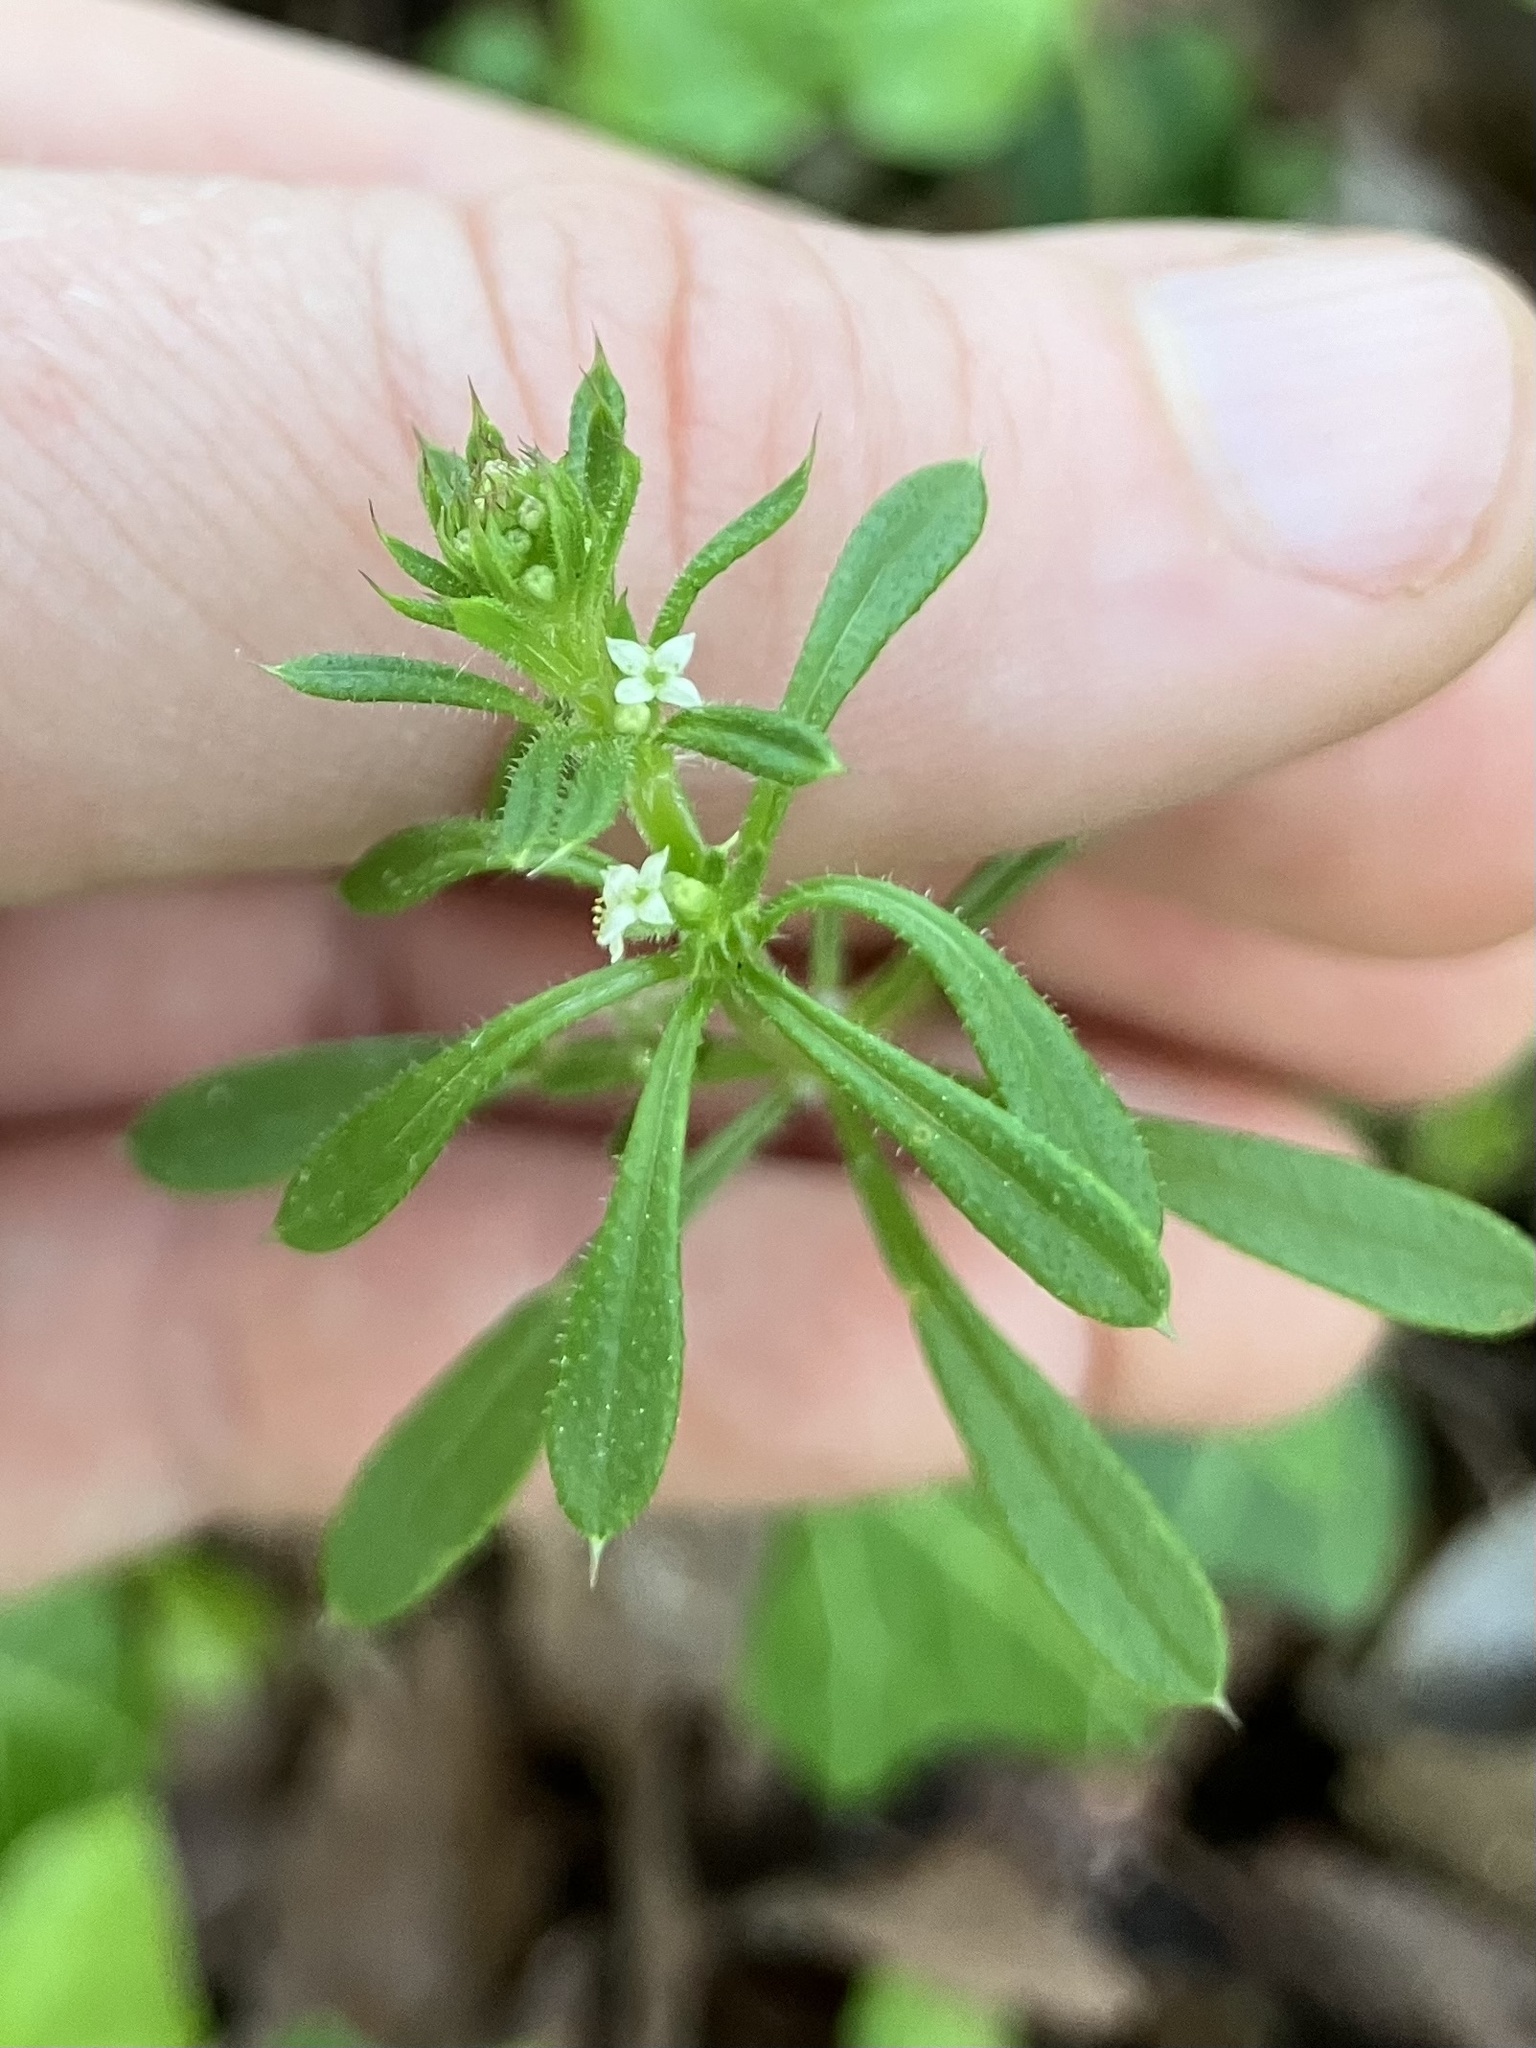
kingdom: Plantae
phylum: Tracheophyta
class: Magnoliopsida
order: Gentianales
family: Rubiaceae
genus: Galium
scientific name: Galium aparine
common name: Cleavers
